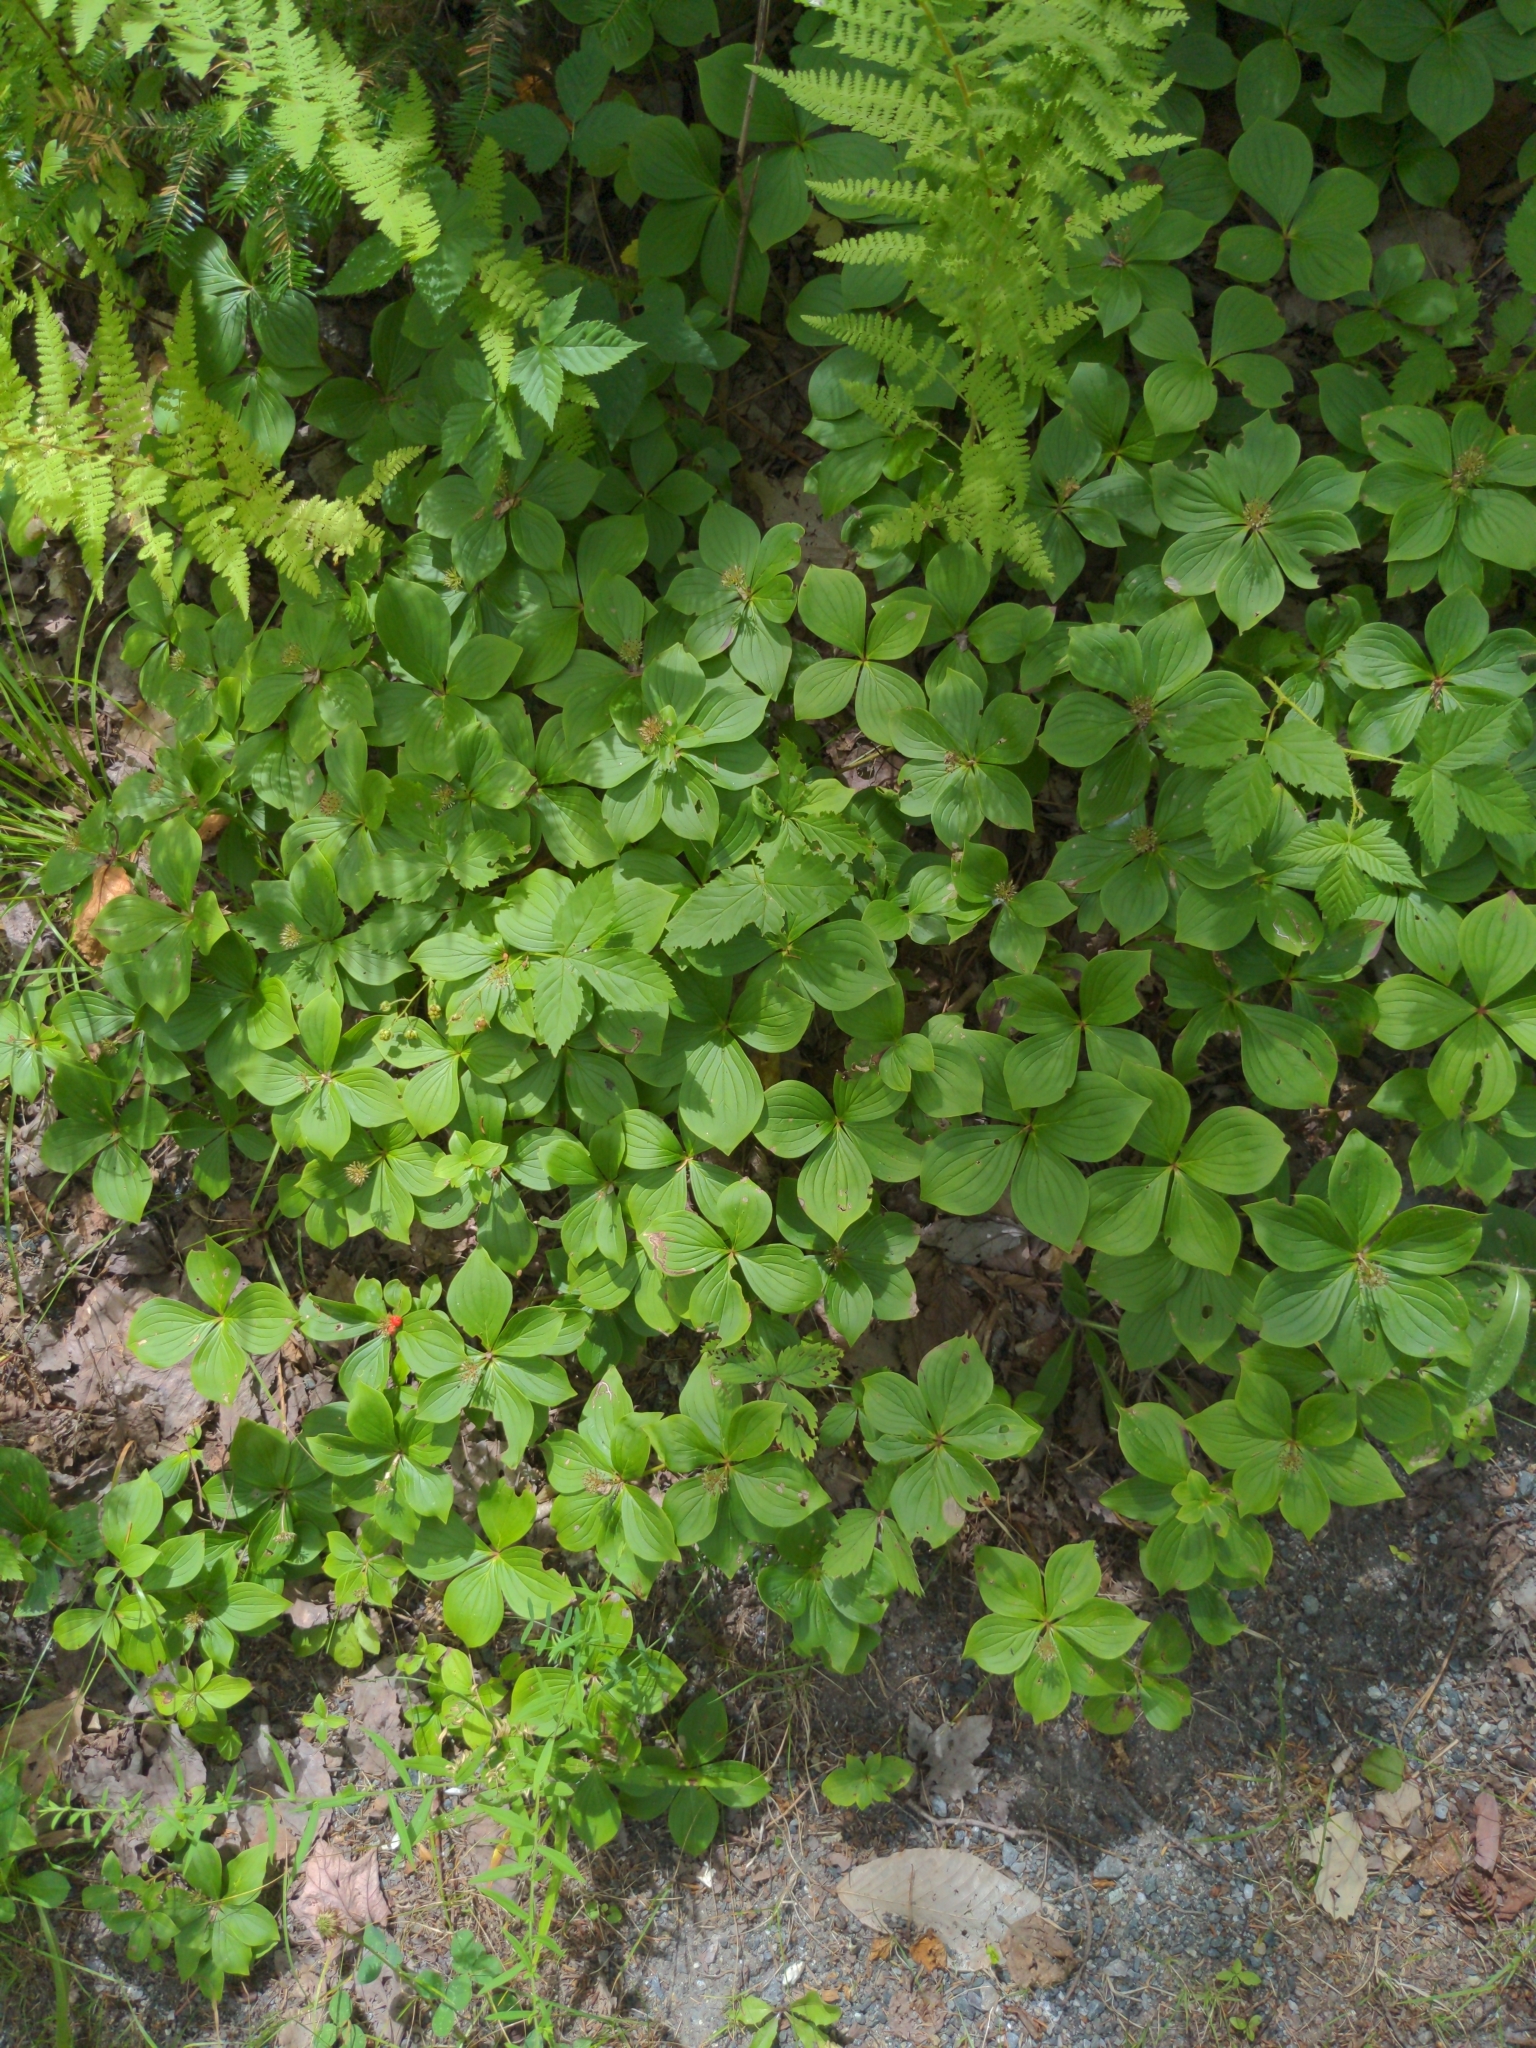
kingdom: Plantae
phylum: Tracheophyta
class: Magnoliopsida
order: Cornales
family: Cornaceae
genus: Cornus
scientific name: Cornus canadensis
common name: Creeping dogwood
